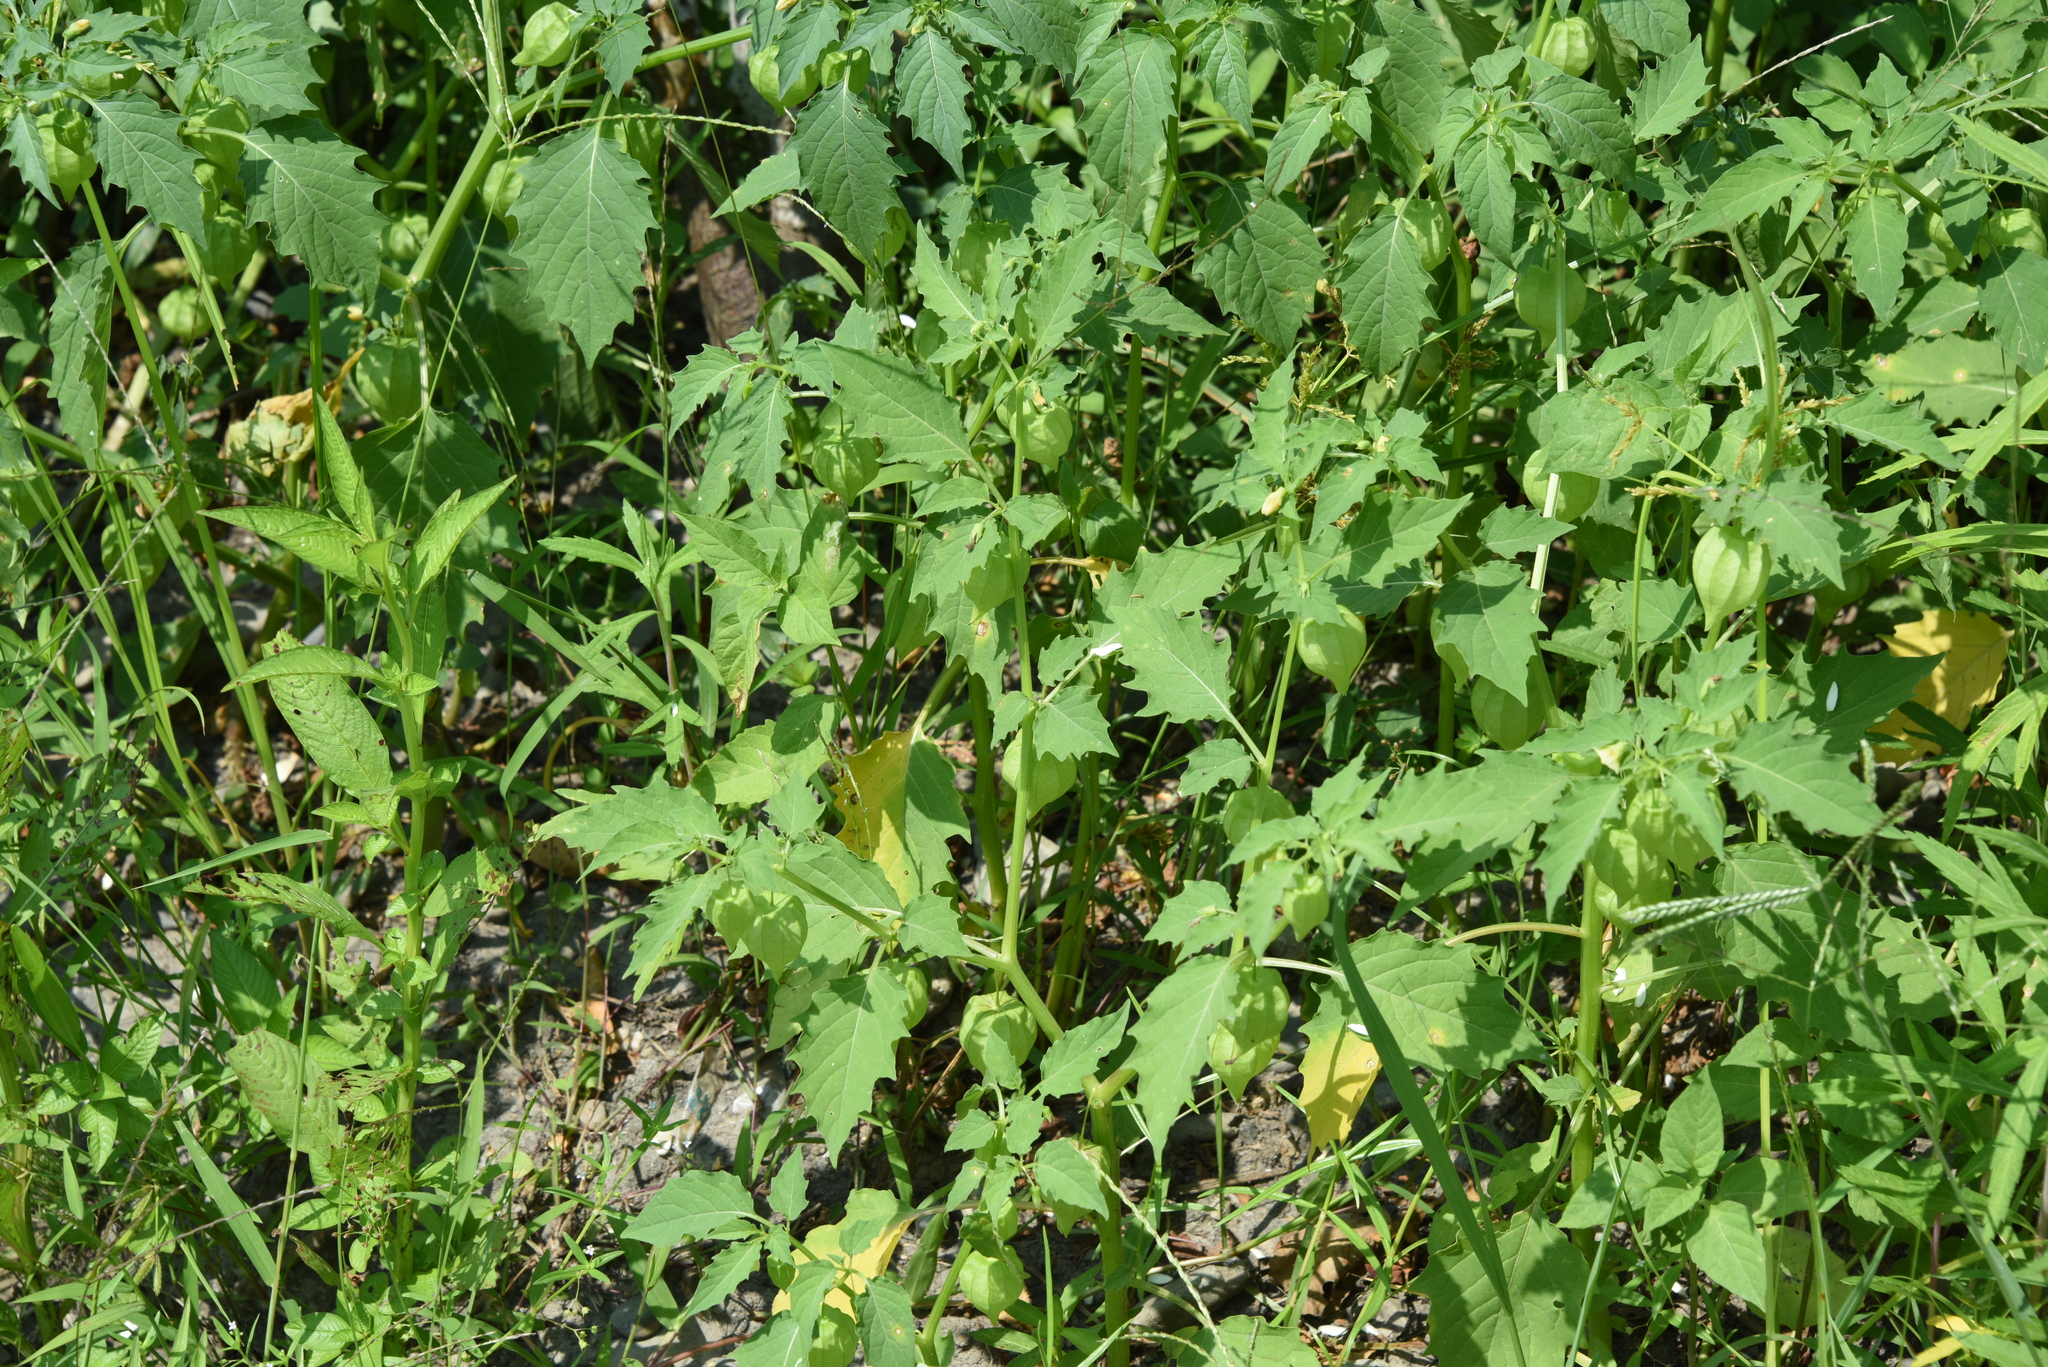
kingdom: Plantae
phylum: Tracheophyta
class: Magnoliopsida
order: Solanales
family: Solanaceae
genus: Physalis
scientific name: Physalis angulata
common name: Angular winter-cherry
